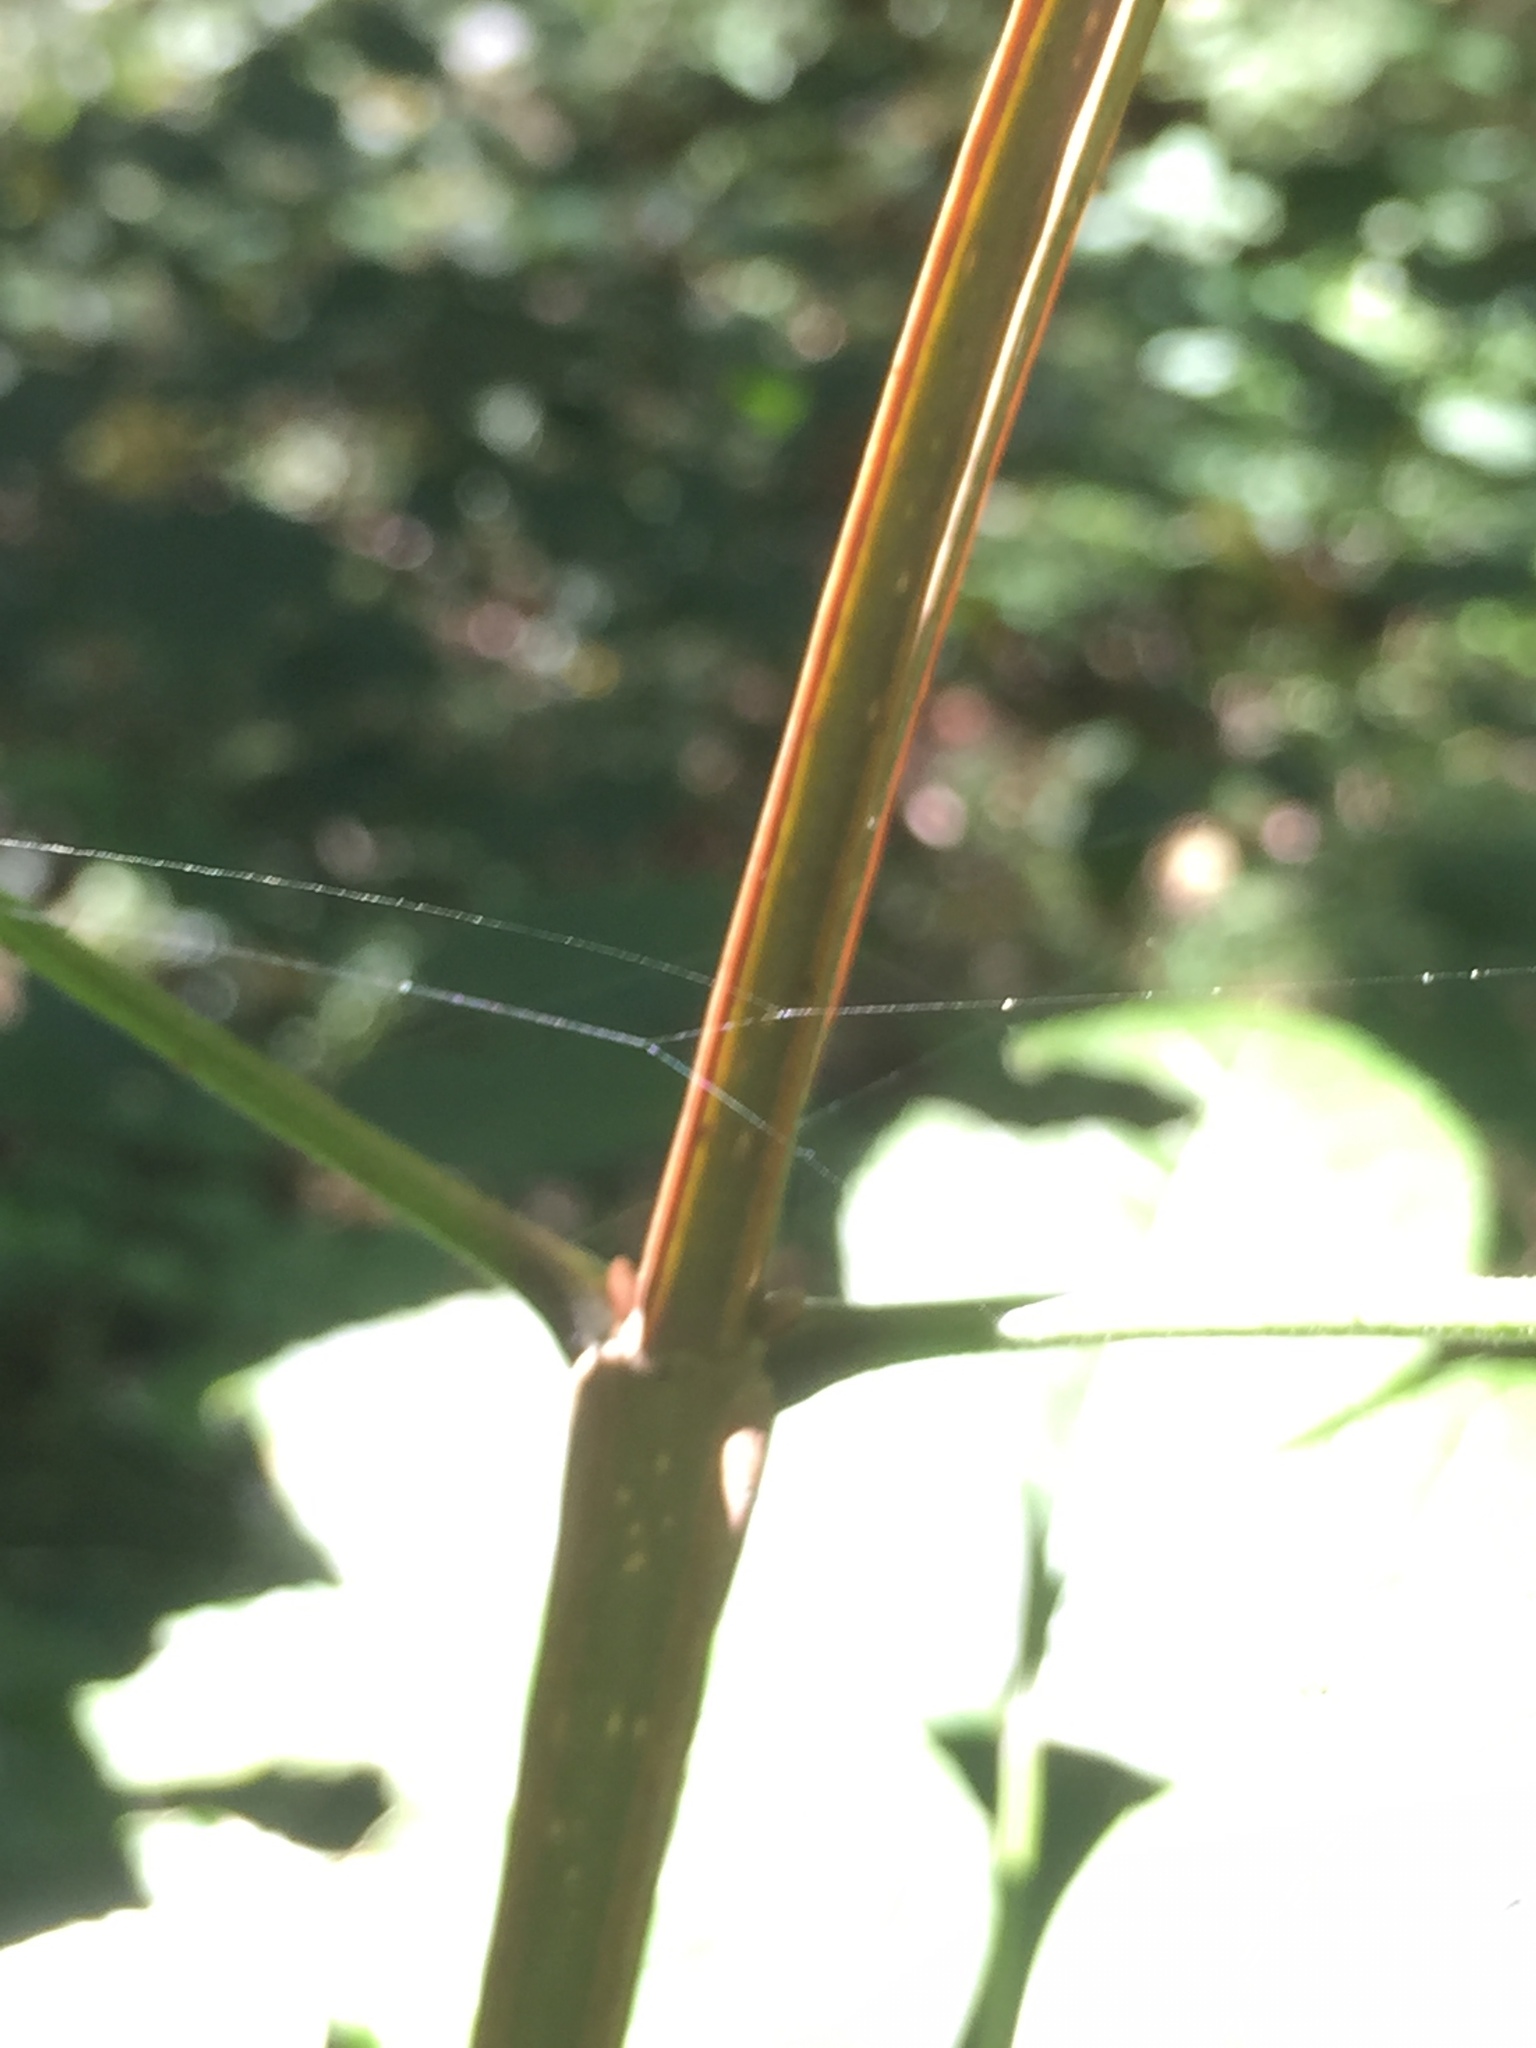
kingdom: Plantae
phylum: Tracheophyta
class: Magnoliopsida
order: Lamiales
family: Oleaceae
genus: Fraxinus
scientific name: Fraxinus quadrangulata
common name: Blue ash
